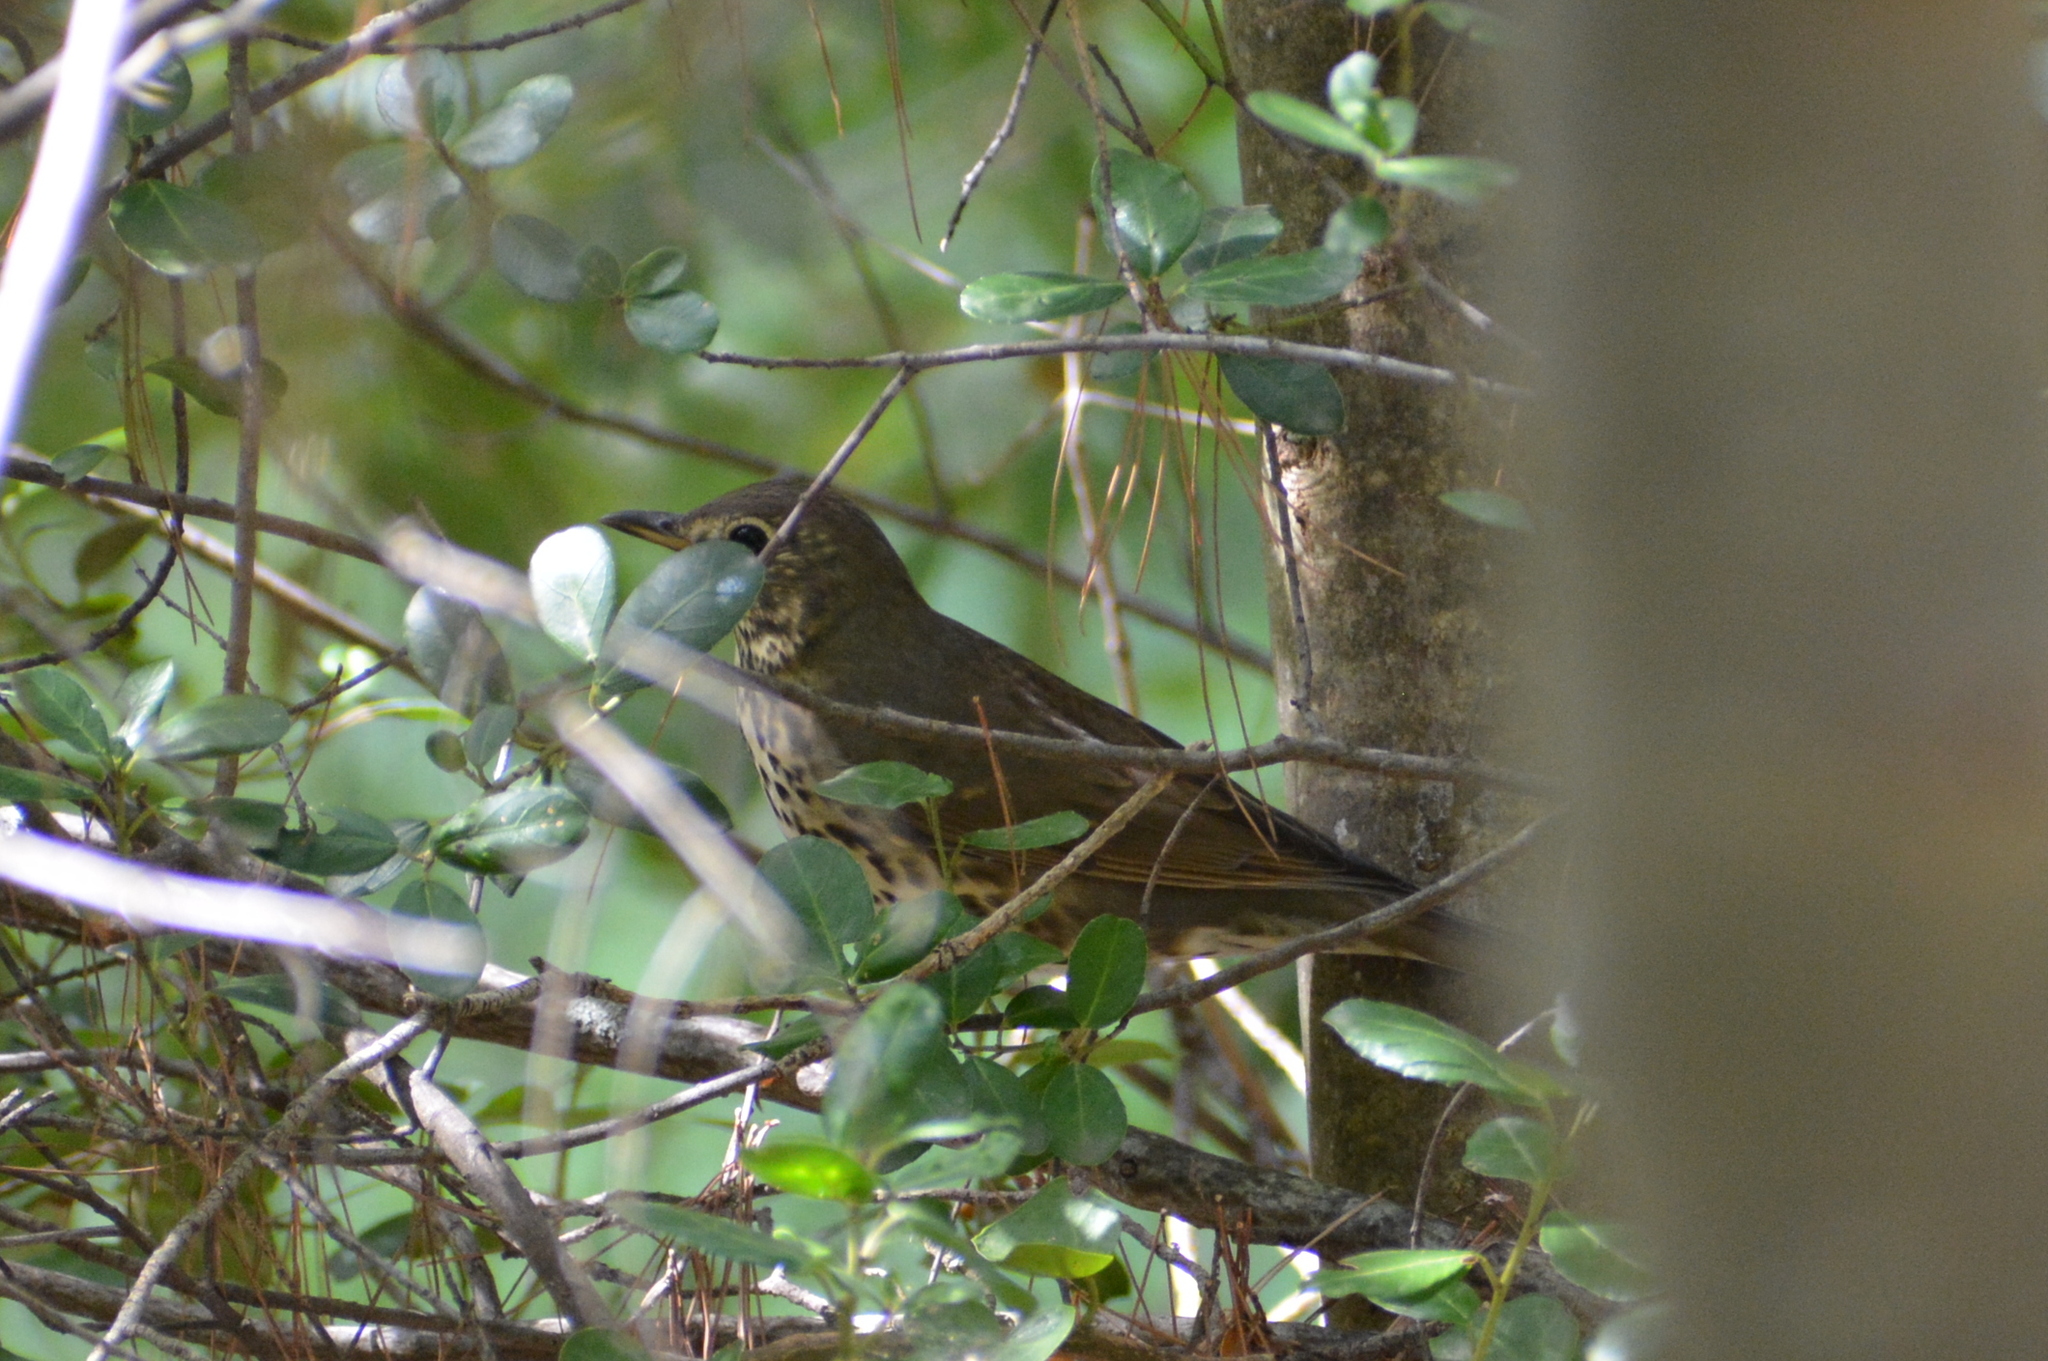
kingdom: Animalia
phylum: Chordata
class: Aves
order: Passeriformes
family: Turdidae
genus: Turdus
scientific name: Turdus philomelos
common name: Song thrush
